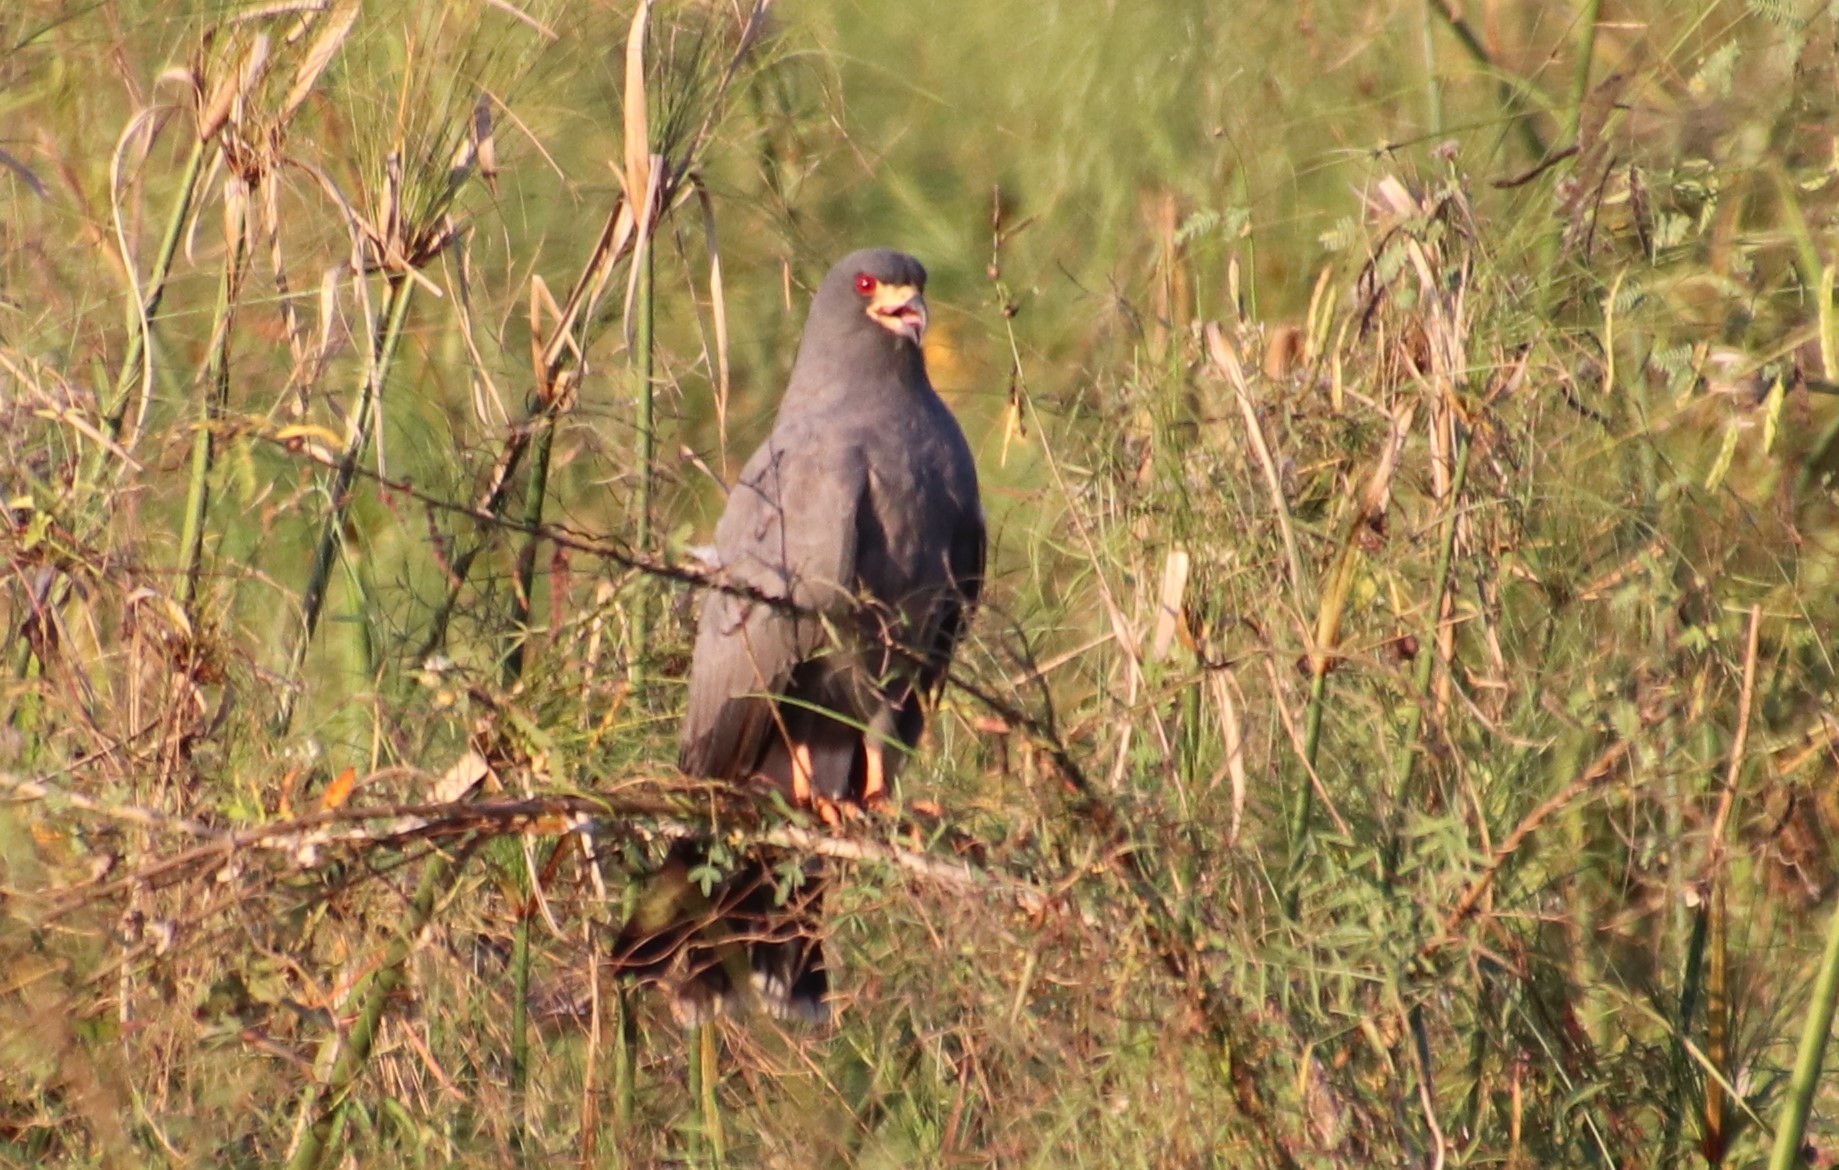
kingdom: Animalia
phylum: Chordata
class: Aves
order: Accipitriformes
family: Accipitridae
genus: Rostrhamus
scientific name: Rostrhamus sociabilis
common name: Snail kite
